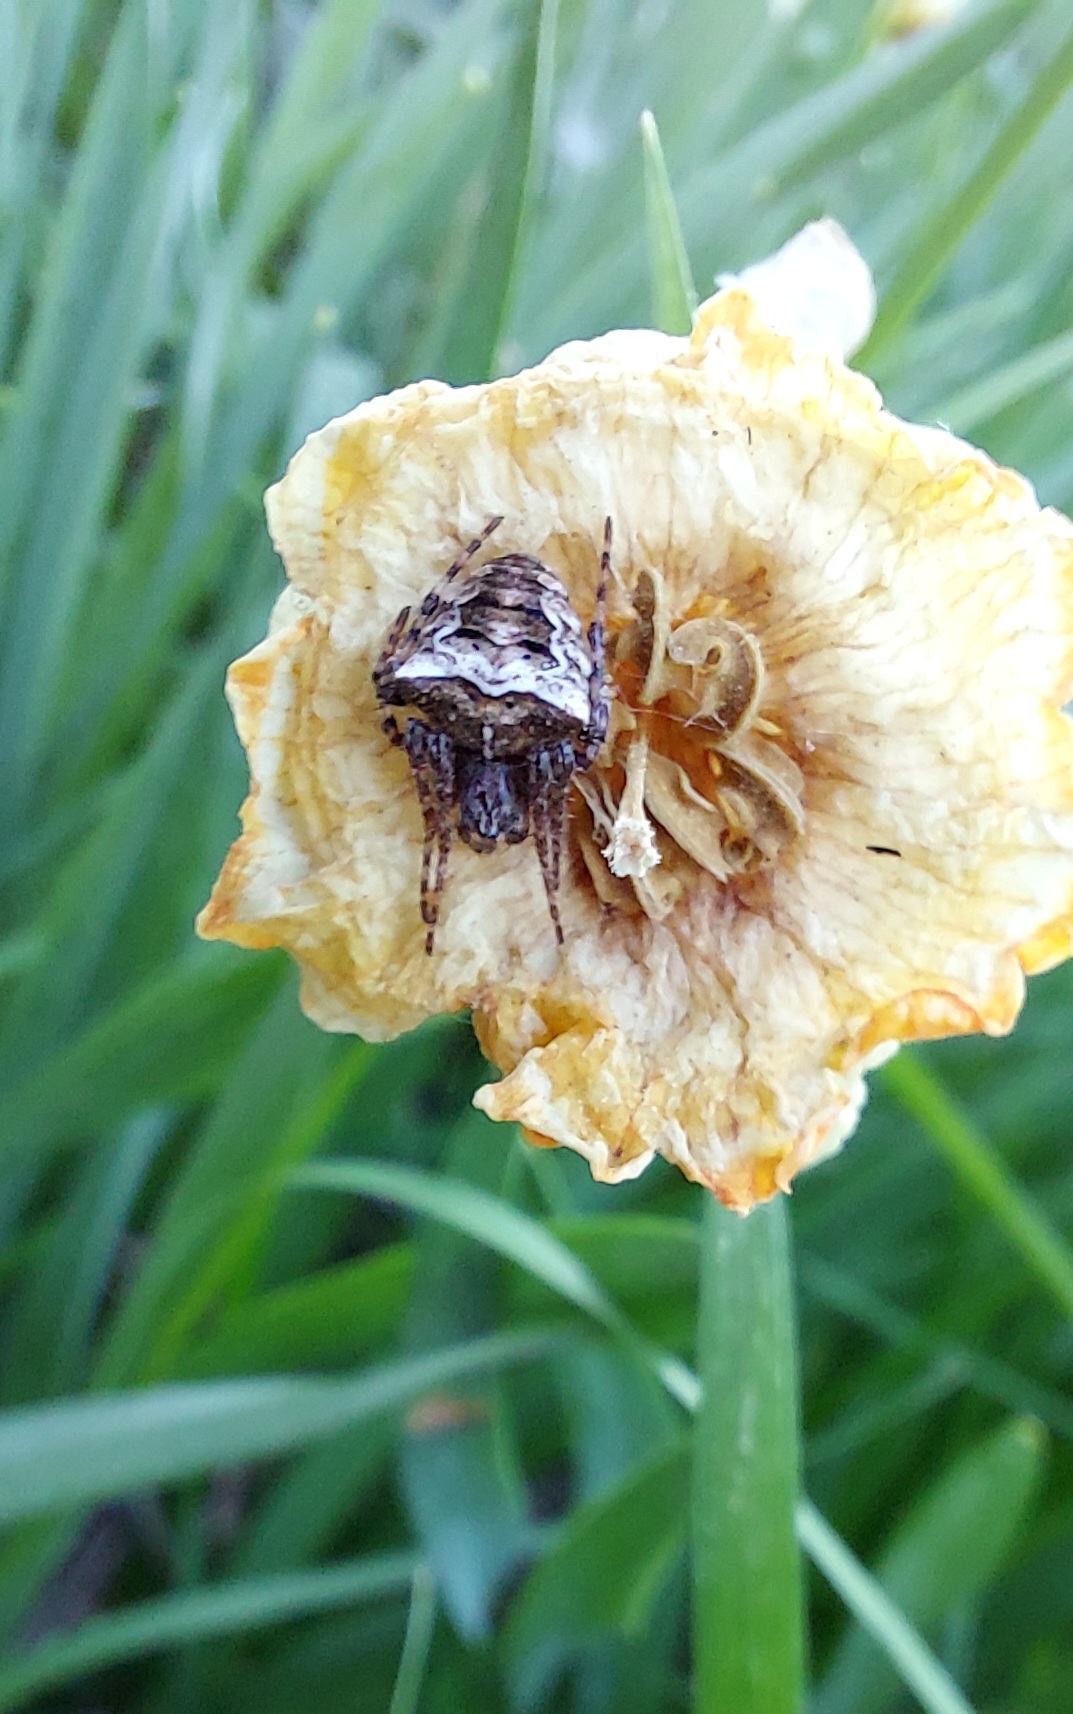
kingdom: Animalia
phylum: Arthropoda
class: Arachnida
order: Araneae
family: Araneidae
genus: Gibbaranea
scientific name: Gibbaranea bituberculata
